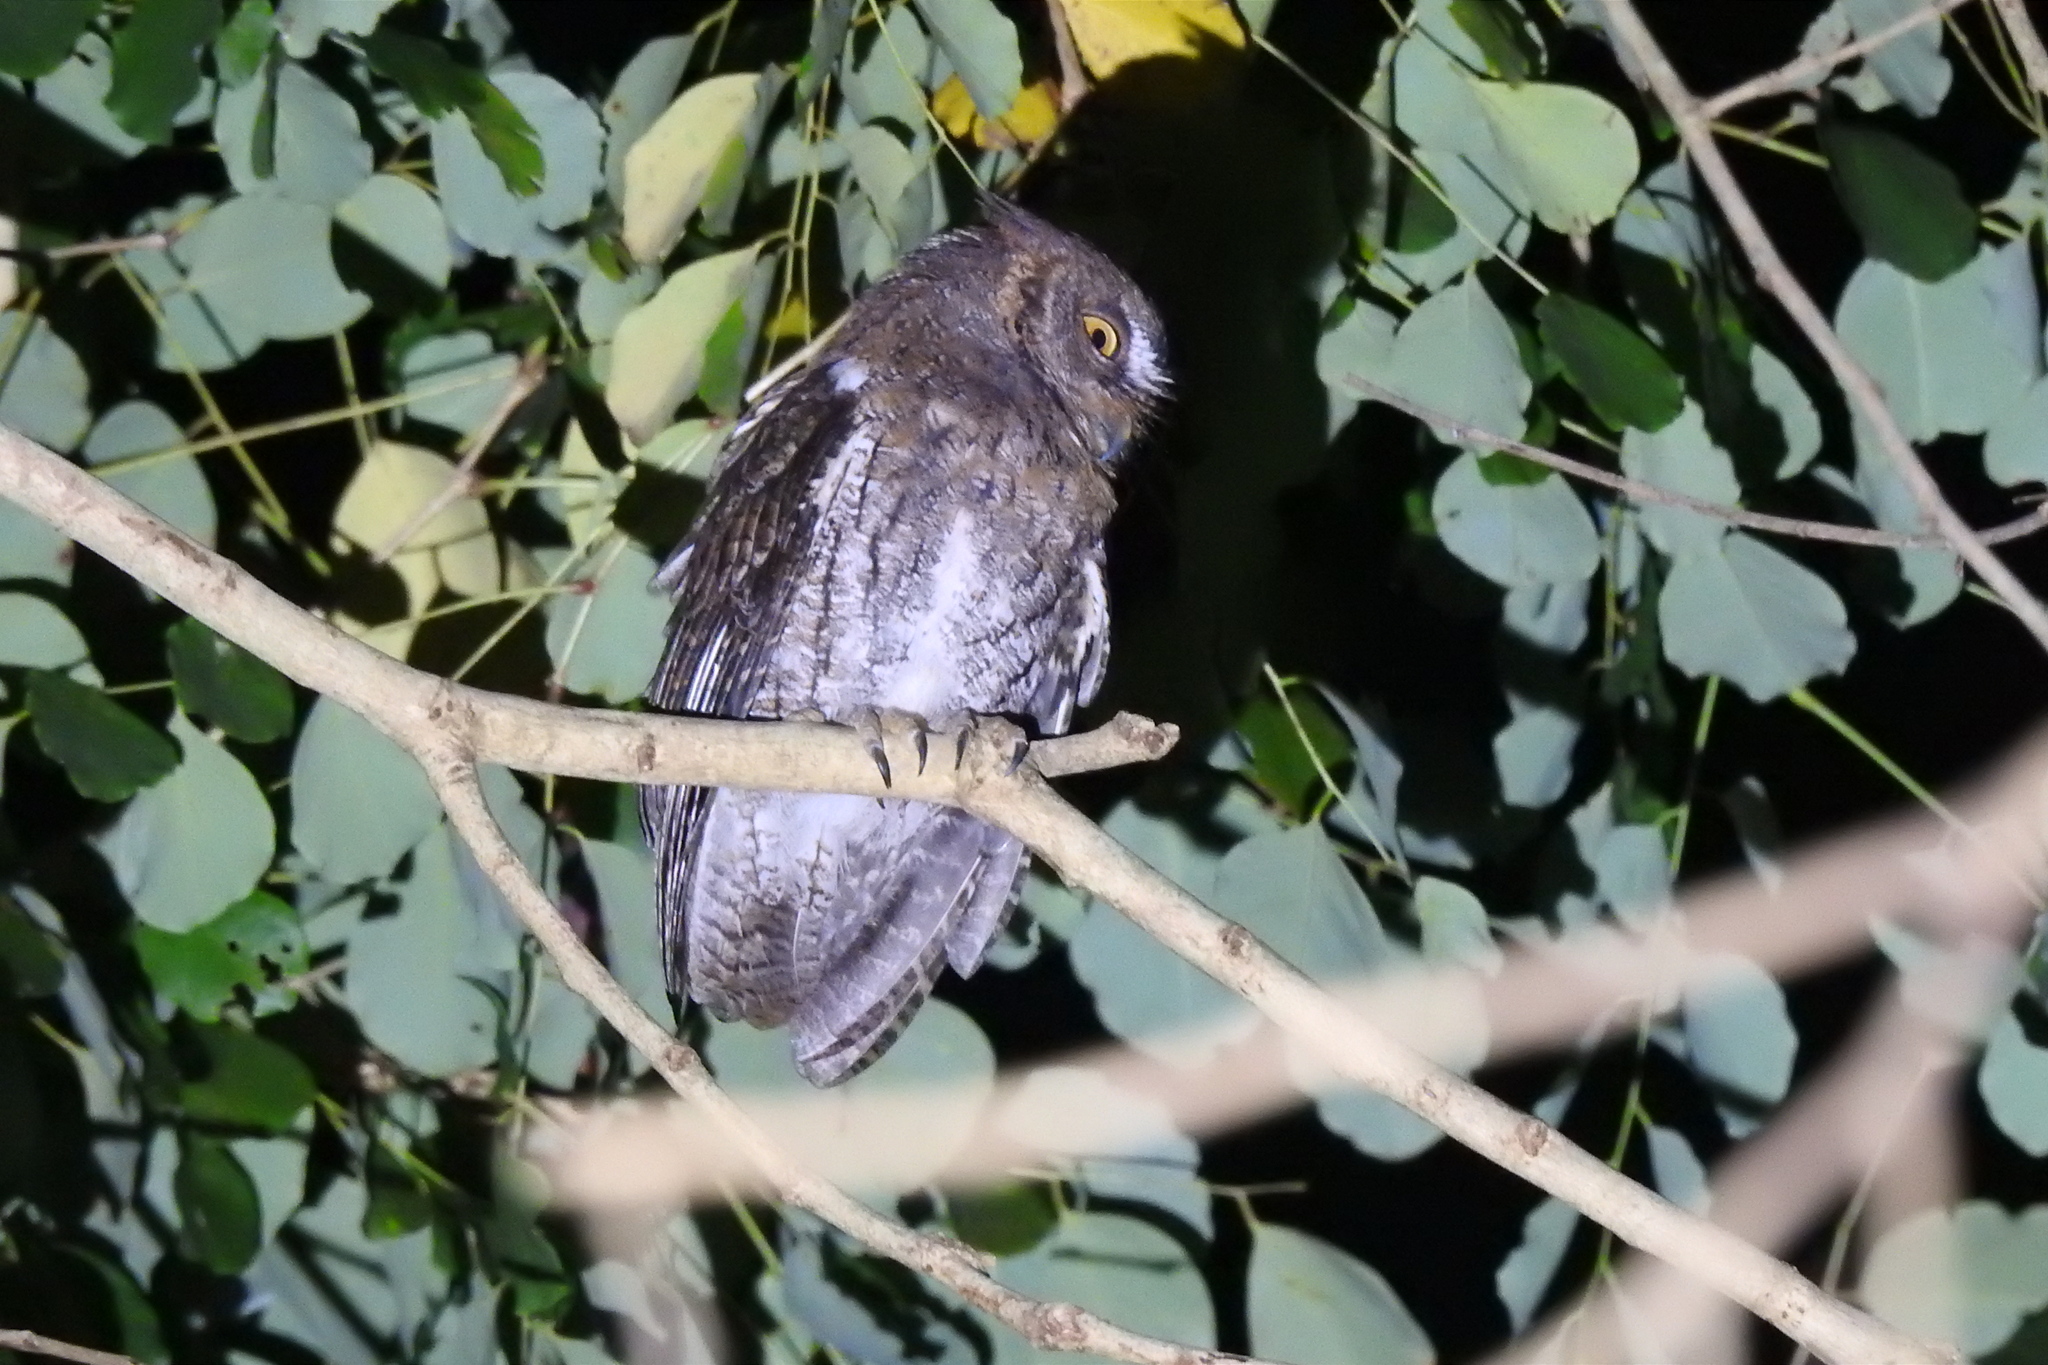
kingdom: Animalia
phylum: Chordata
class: Aves
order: Strigiformes
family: Strigidae
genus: Otus
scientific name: Otus jolandae
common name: Rinjani scops owl
